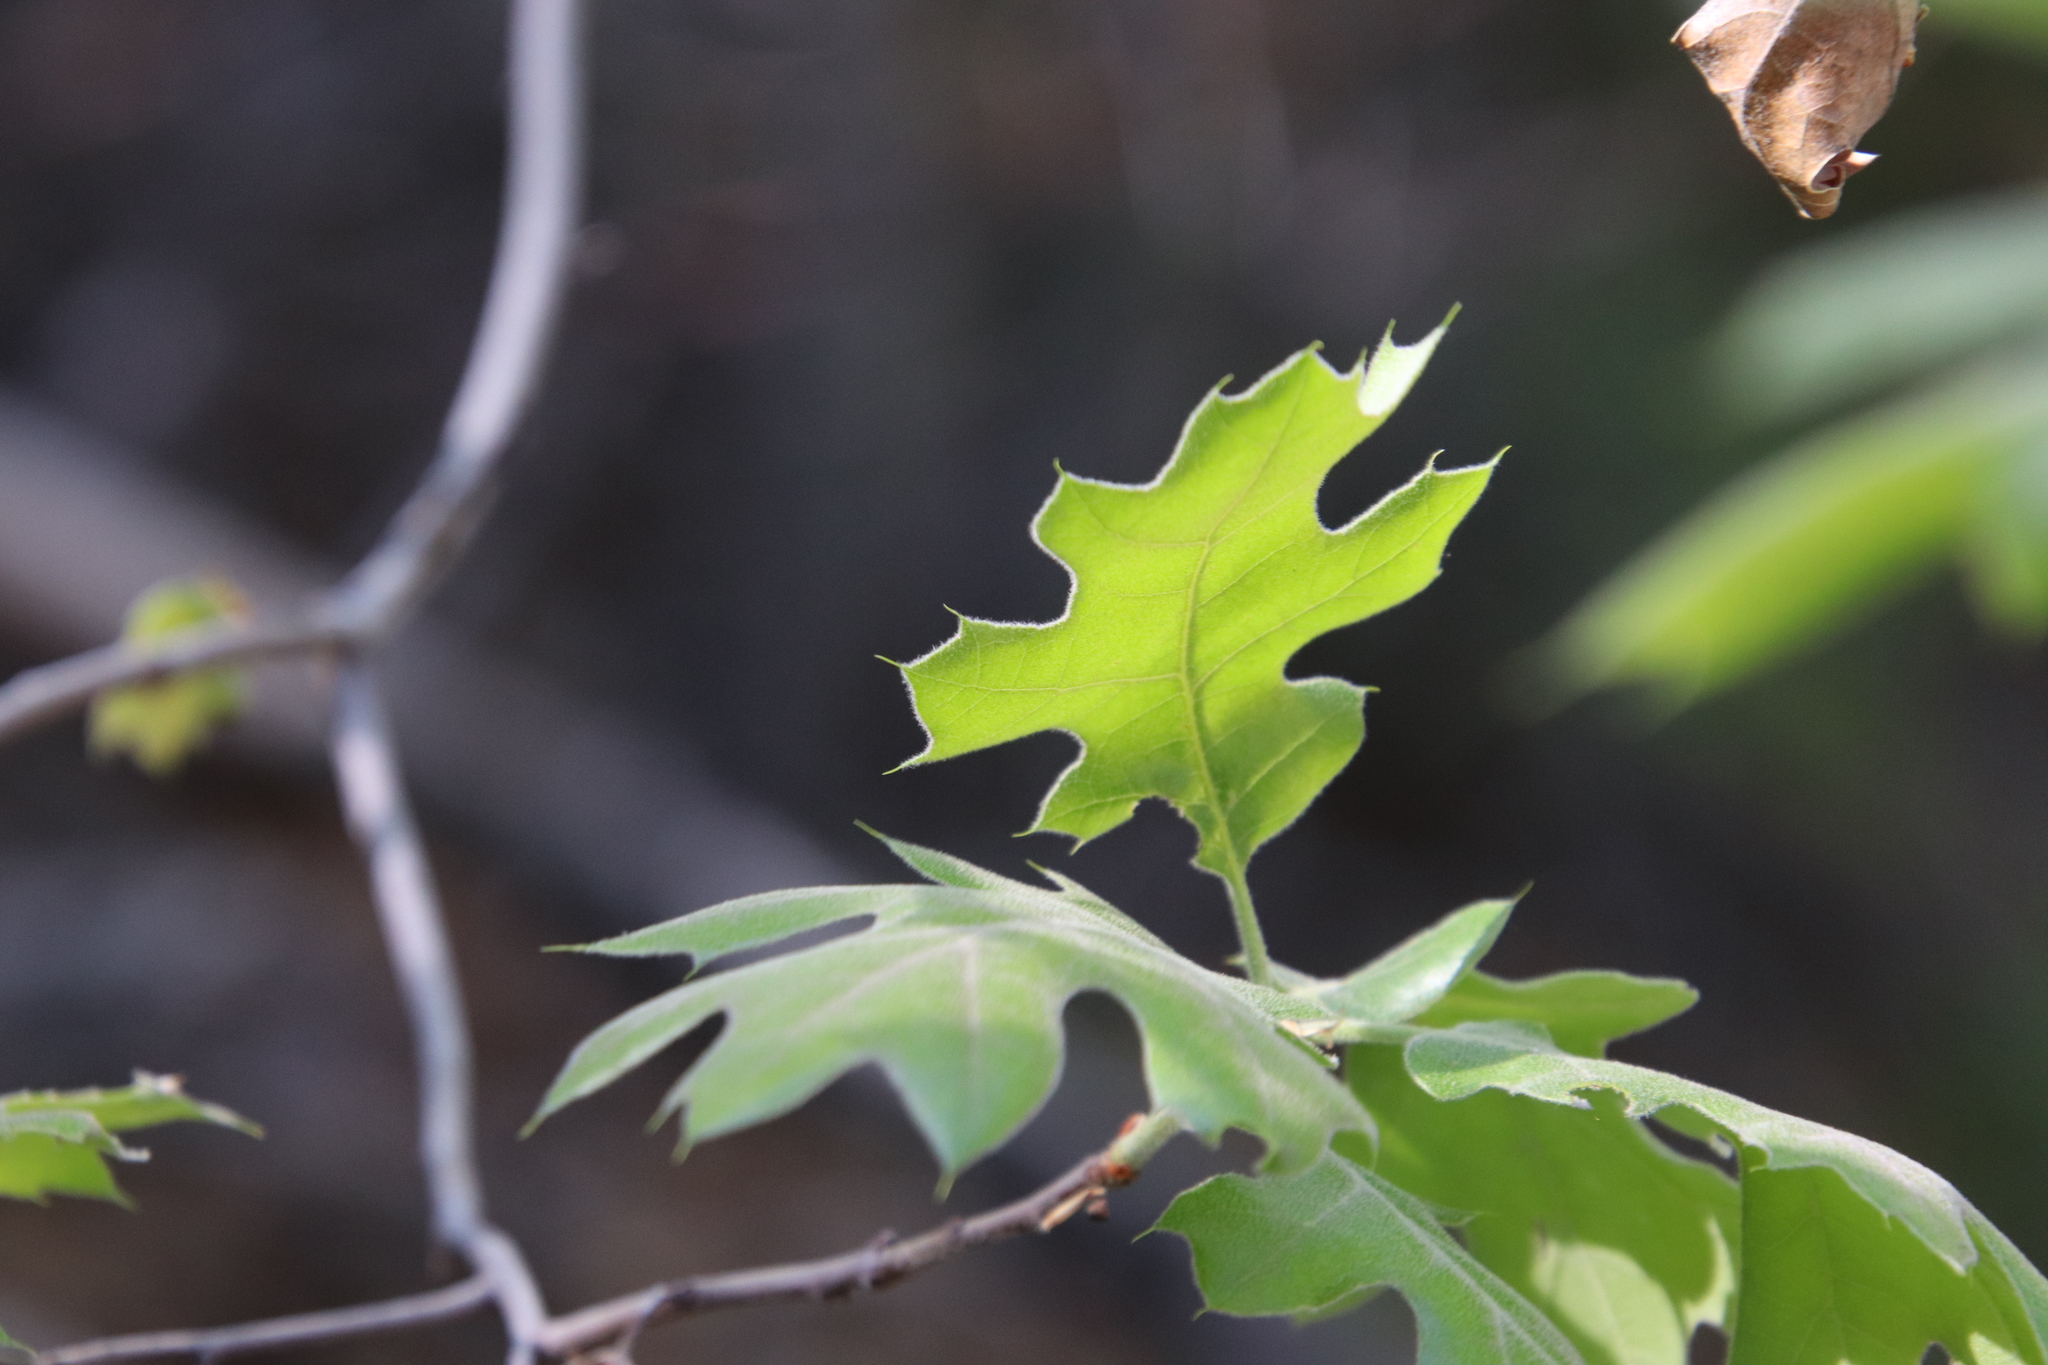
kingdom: Plantae
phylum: Tracheophyta
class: Magnoliopsida
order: Fagales
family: Fagaceae
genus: Quercus
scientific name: Quercus kelloggii
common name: California black oak
